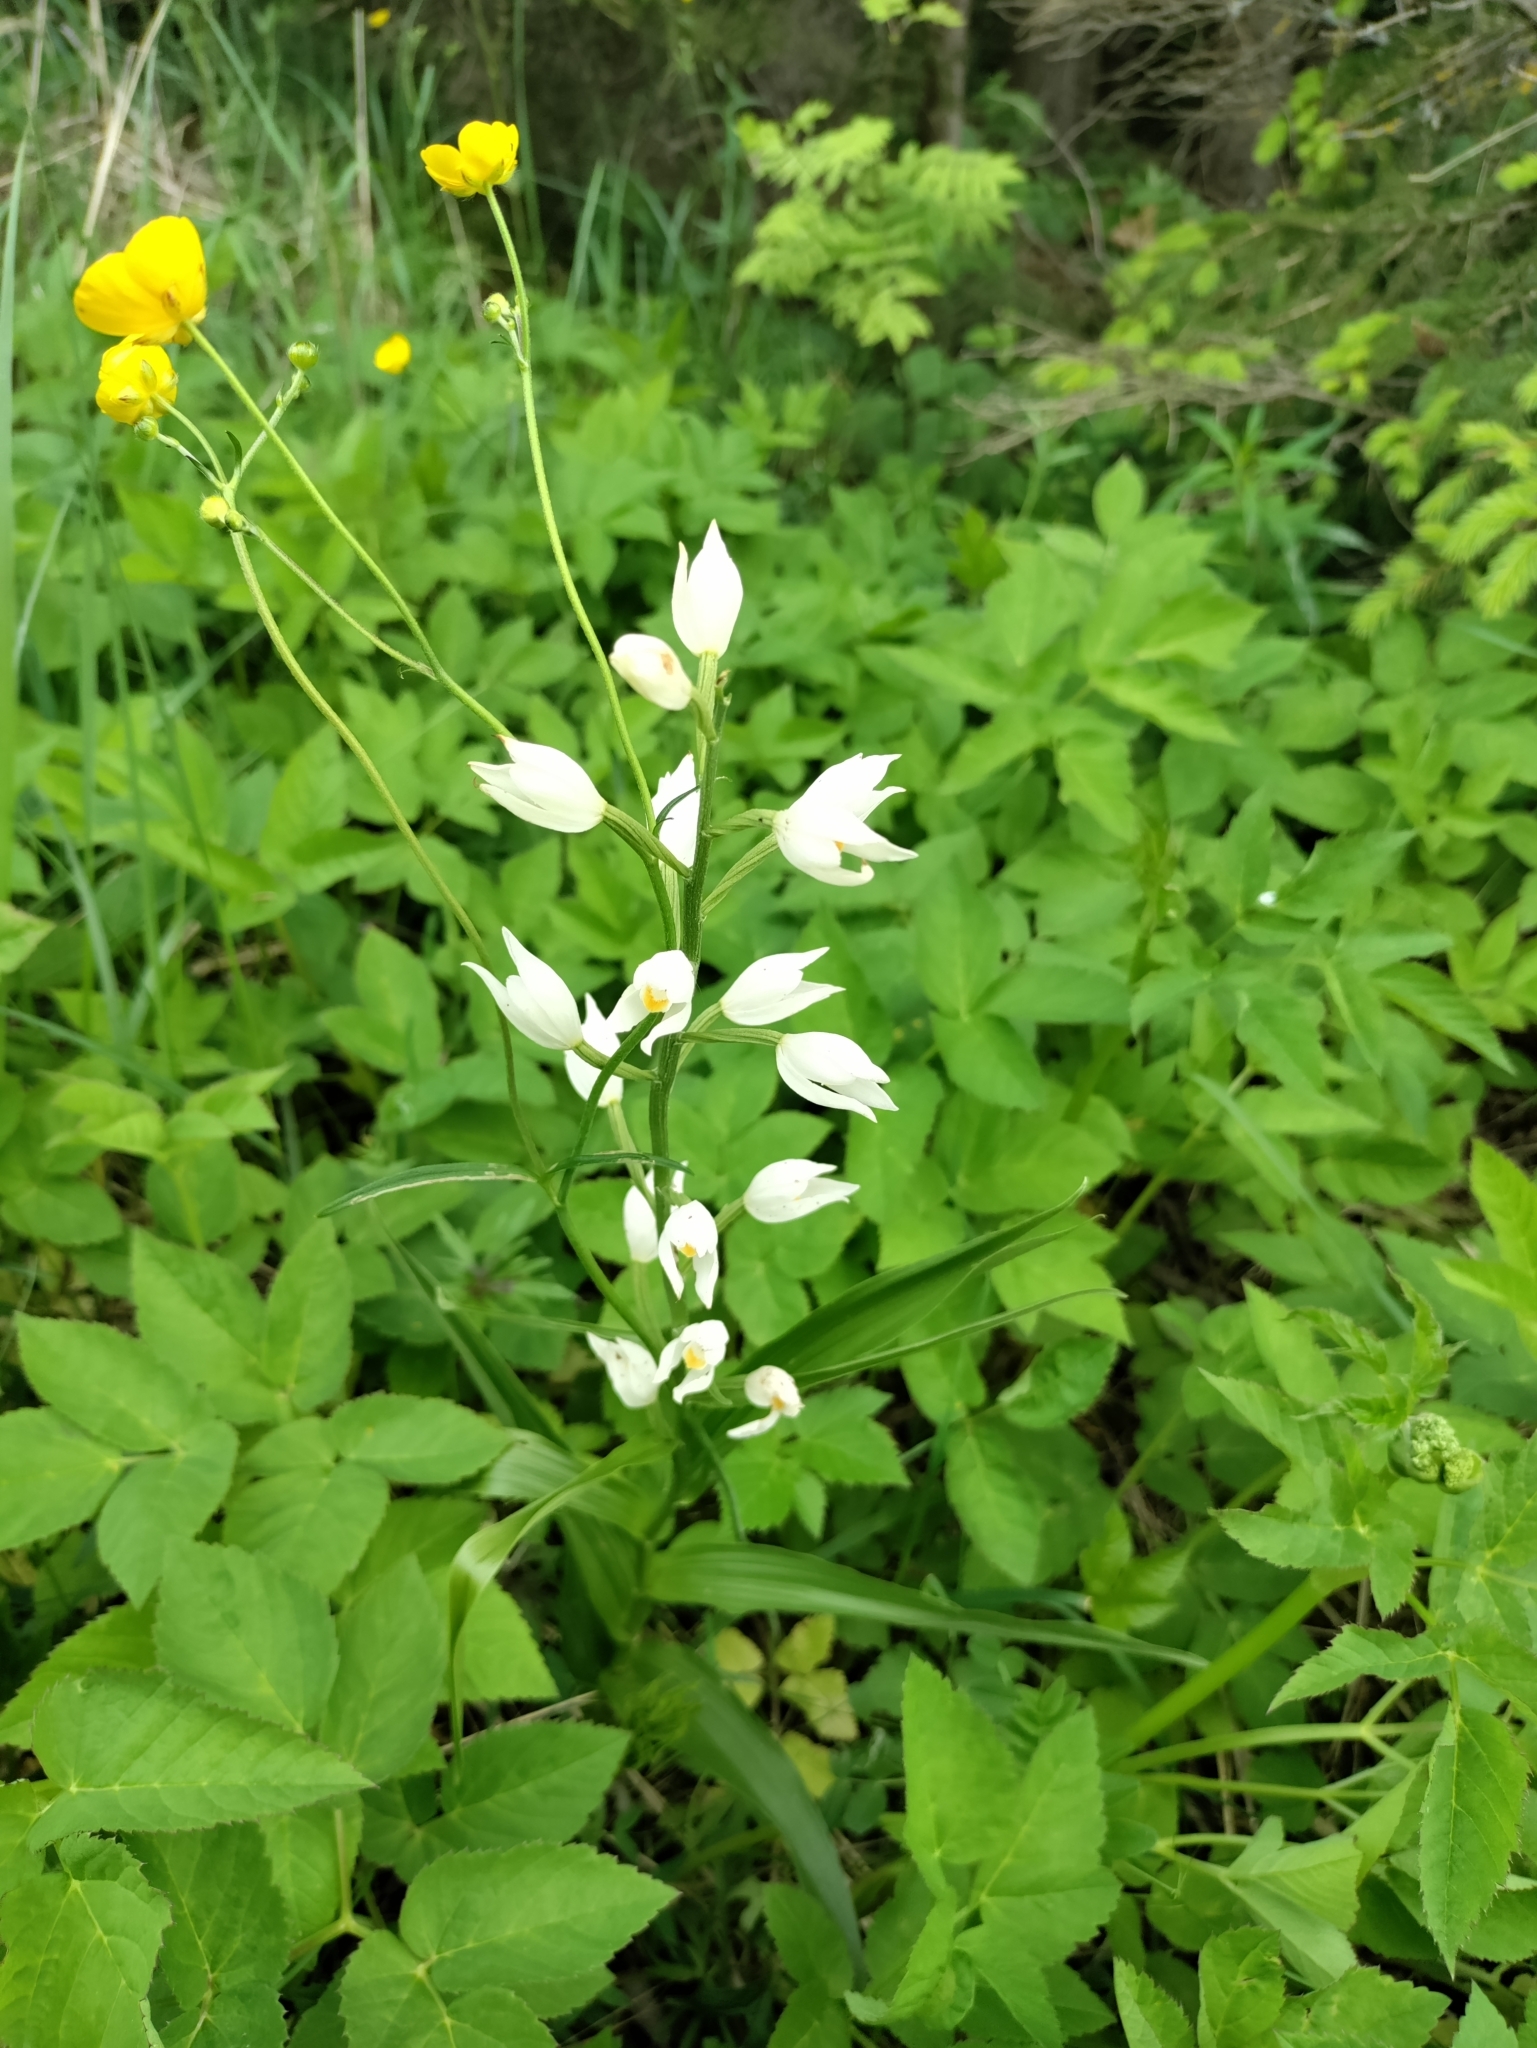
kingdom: Plantae
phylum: Tracheophyta
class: Liliopsida
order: Asparagales
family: Orchidaceae
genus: Cephalanthera
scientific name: Cephalanthera longifolia
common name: Narrow-leaved helleborine
